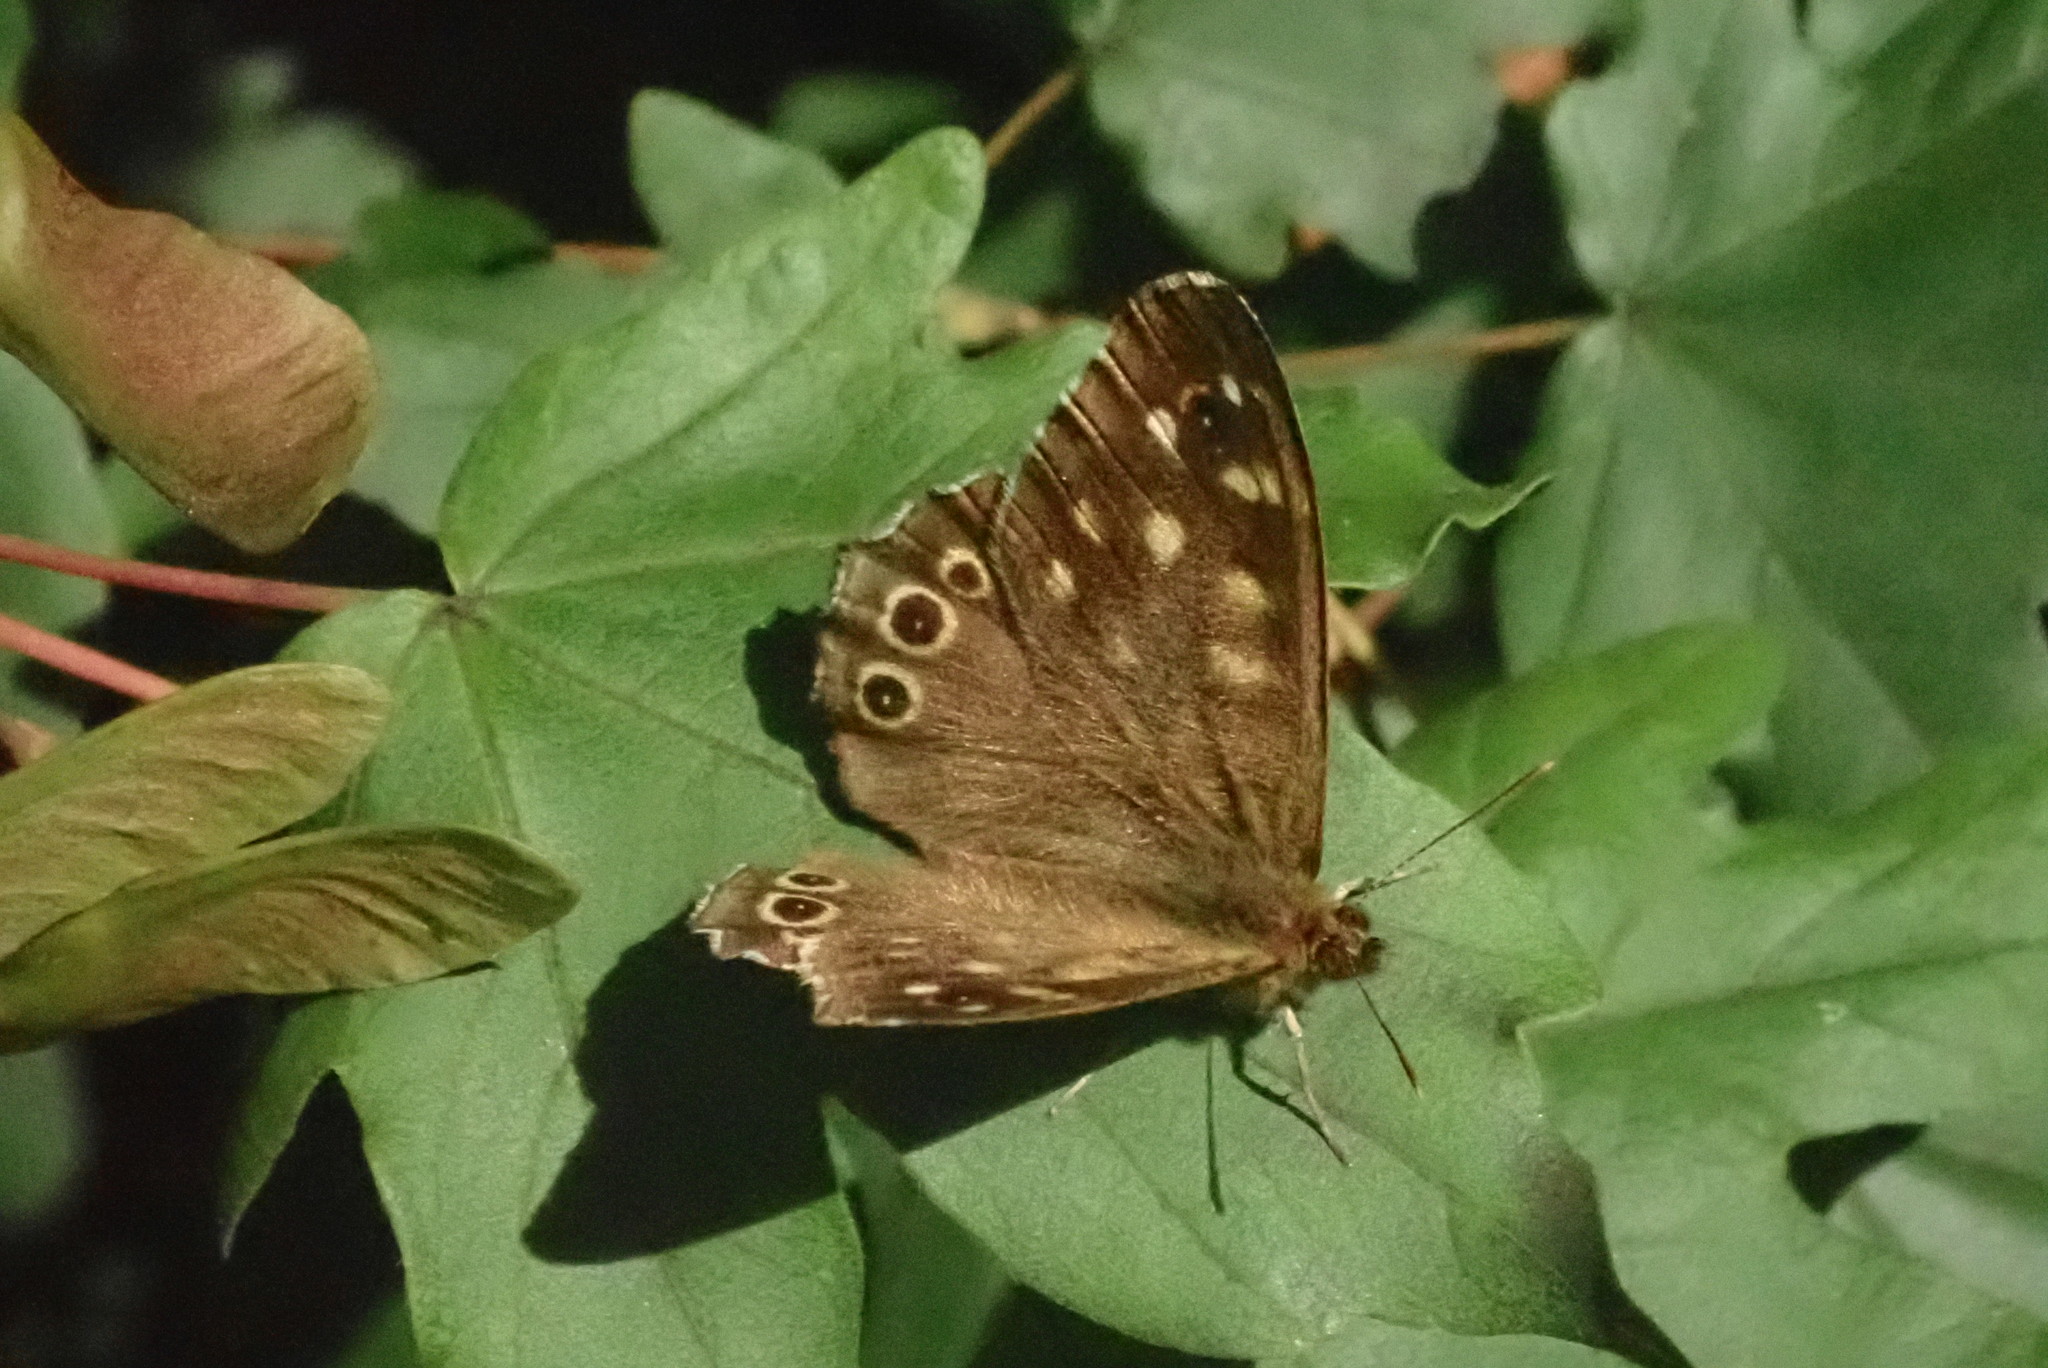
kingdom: Animalia
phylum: Arthropoda
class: Insecta
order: Lepidoptera
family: Nymphalidae
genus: Pararge
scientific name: Pararge aegeria
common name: Speckled wood
